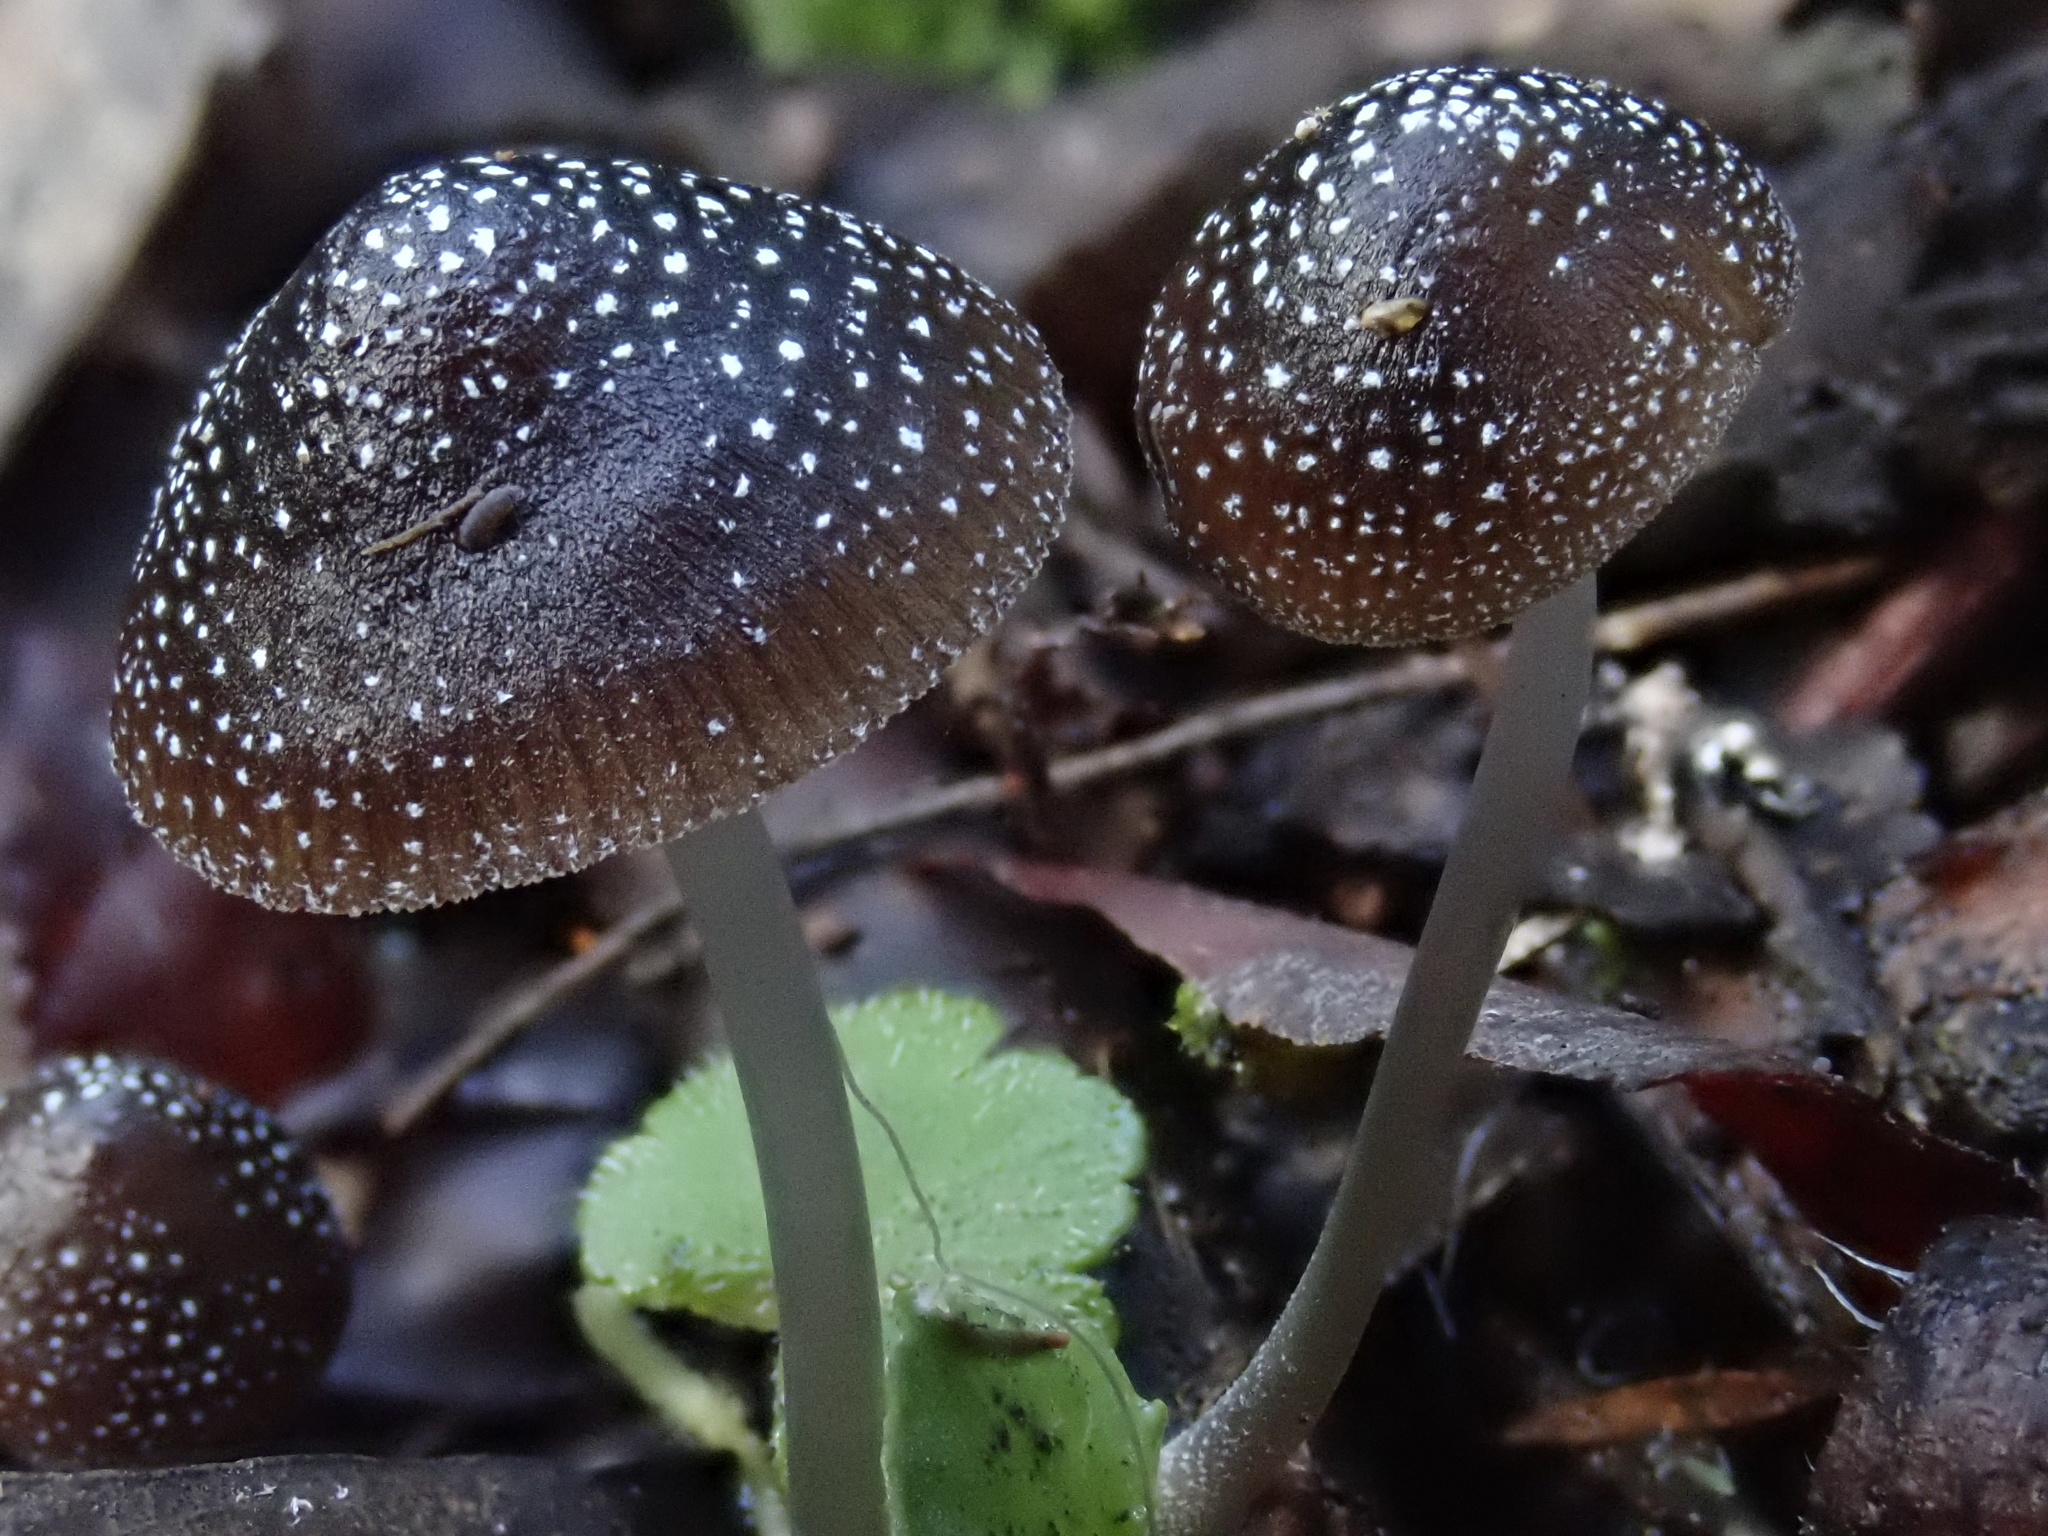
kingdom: Fungi
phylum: Basidiomycota
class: Agaricomycetes
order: Agaricales
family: Mycenaceae
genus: Mycena
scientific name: Mycena nargan
